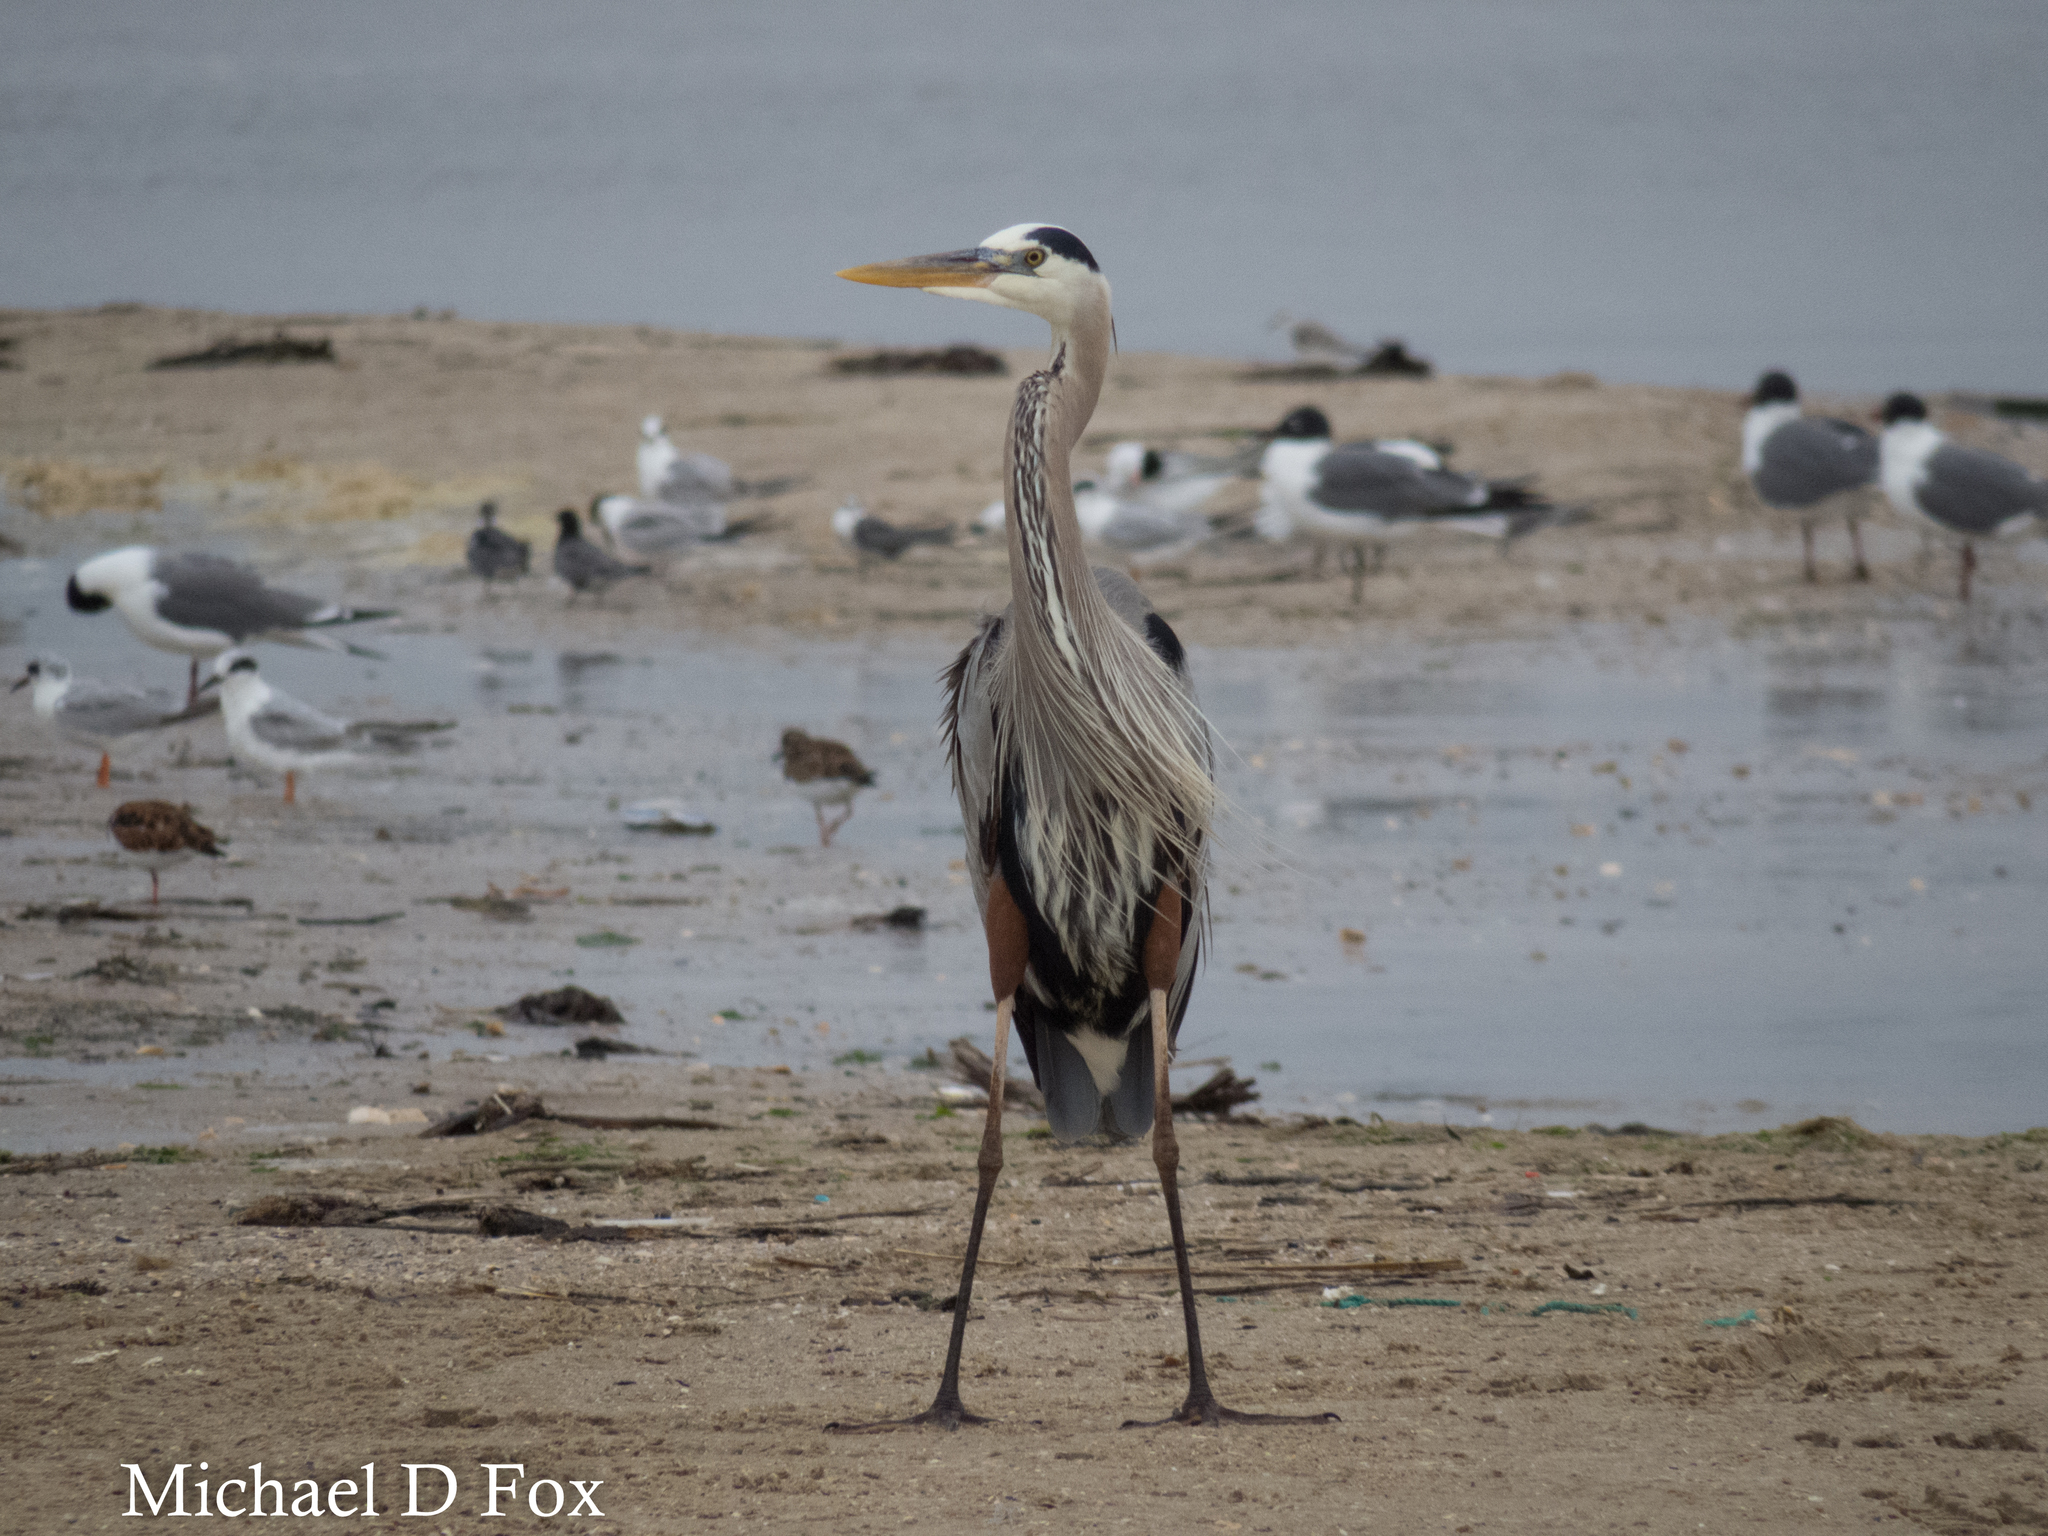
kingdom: Animalia
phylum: Chordata
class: Aves
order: Pelecaniformes
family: Ardeidae
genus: Ardea
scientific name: Ardea herodias
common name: Great blue heron
